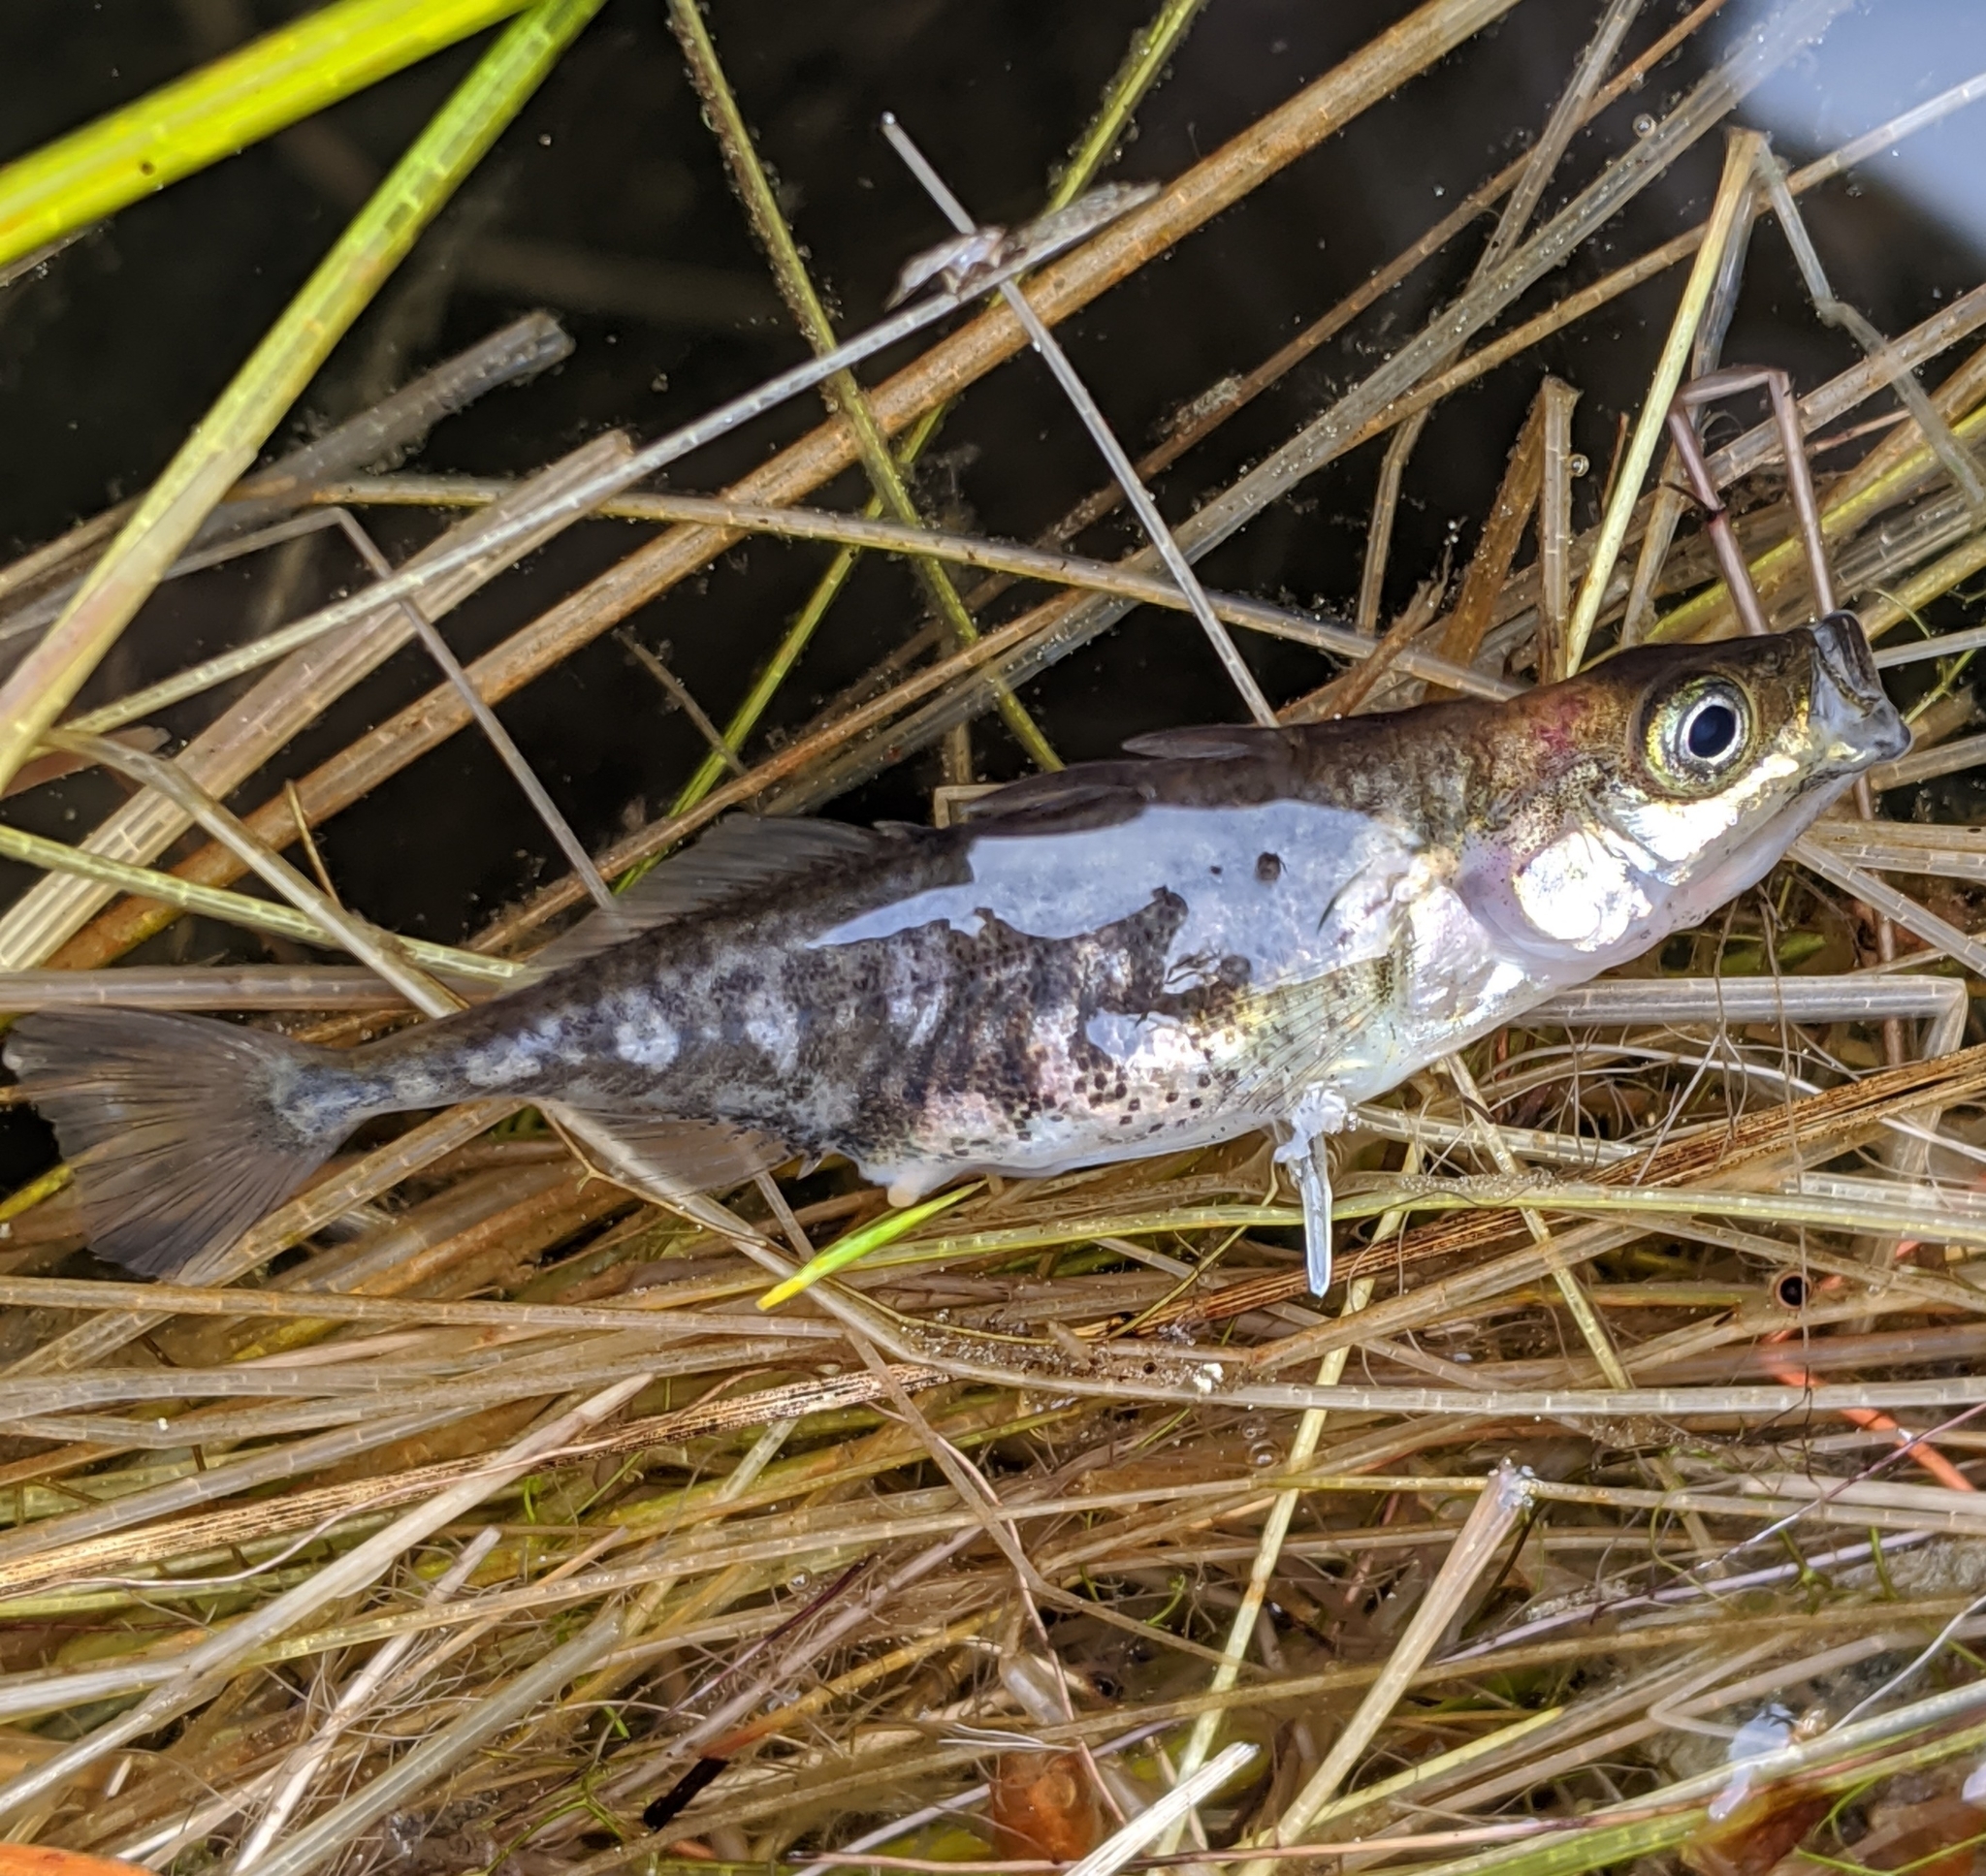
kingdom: Animalia
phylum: Chordata
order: Gasterosteiformes
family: Gasterosteidae
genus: Gasterosteus
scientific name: Gasterosteus aculeatus
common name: Three-spined stickleback
